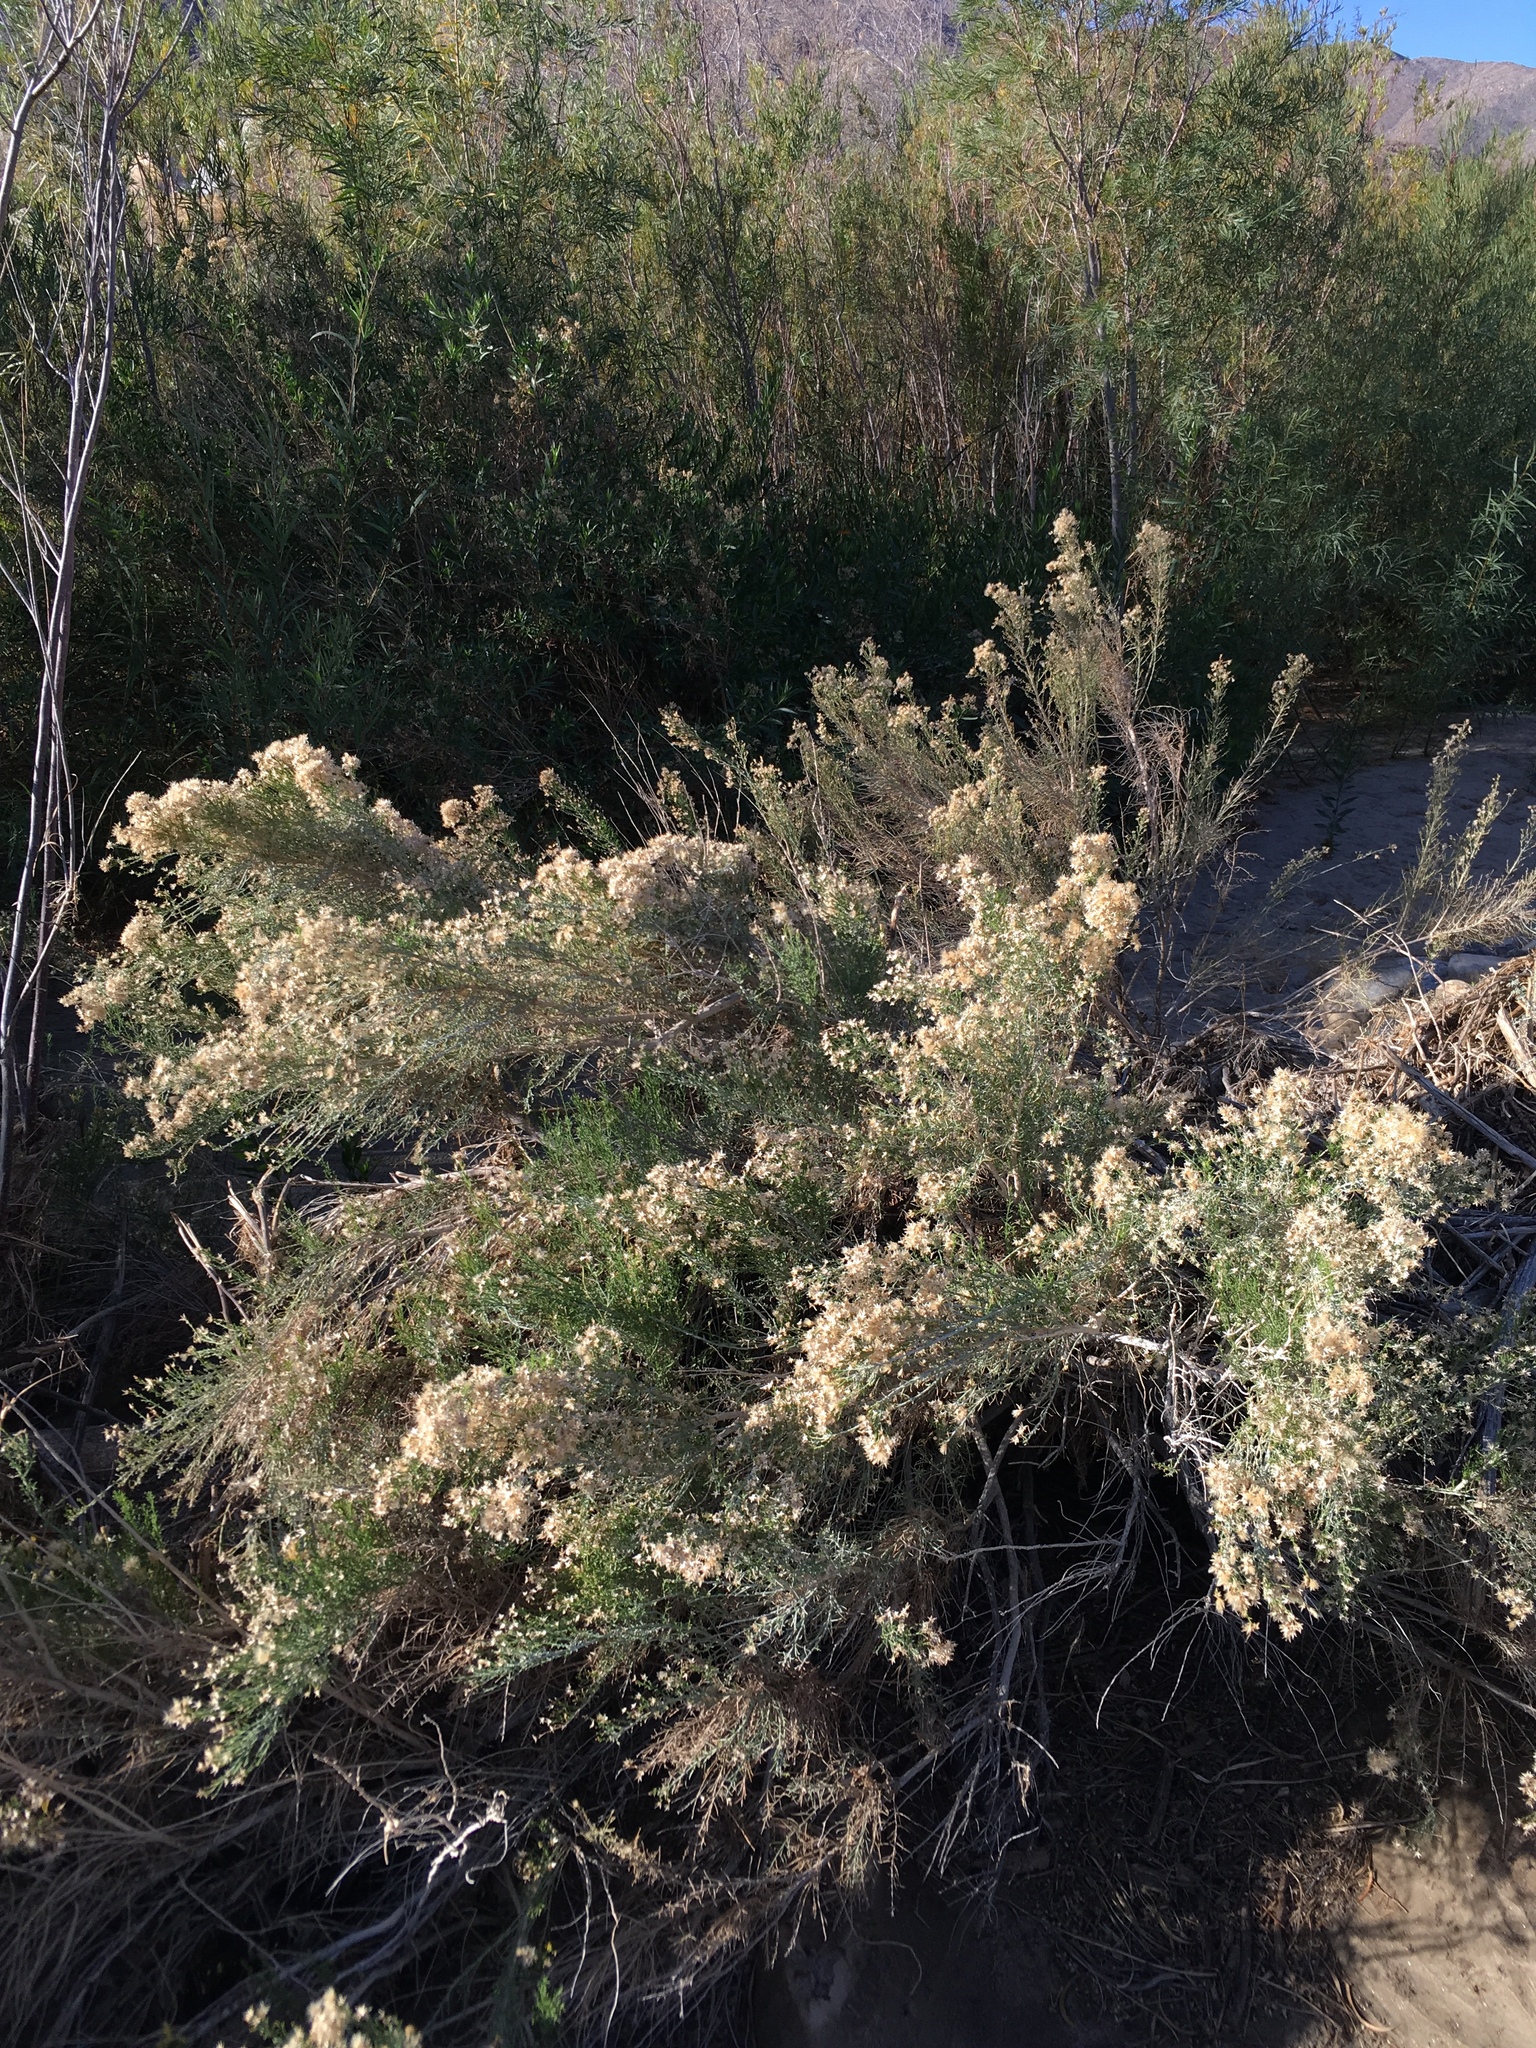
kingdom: Plantae
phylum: Tracheophyta
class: Magnoliopsida
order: Asterales
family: Asteraceae
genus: Ericameria
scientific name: Ericameria paniculata
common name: Punctate rabbitbrush
